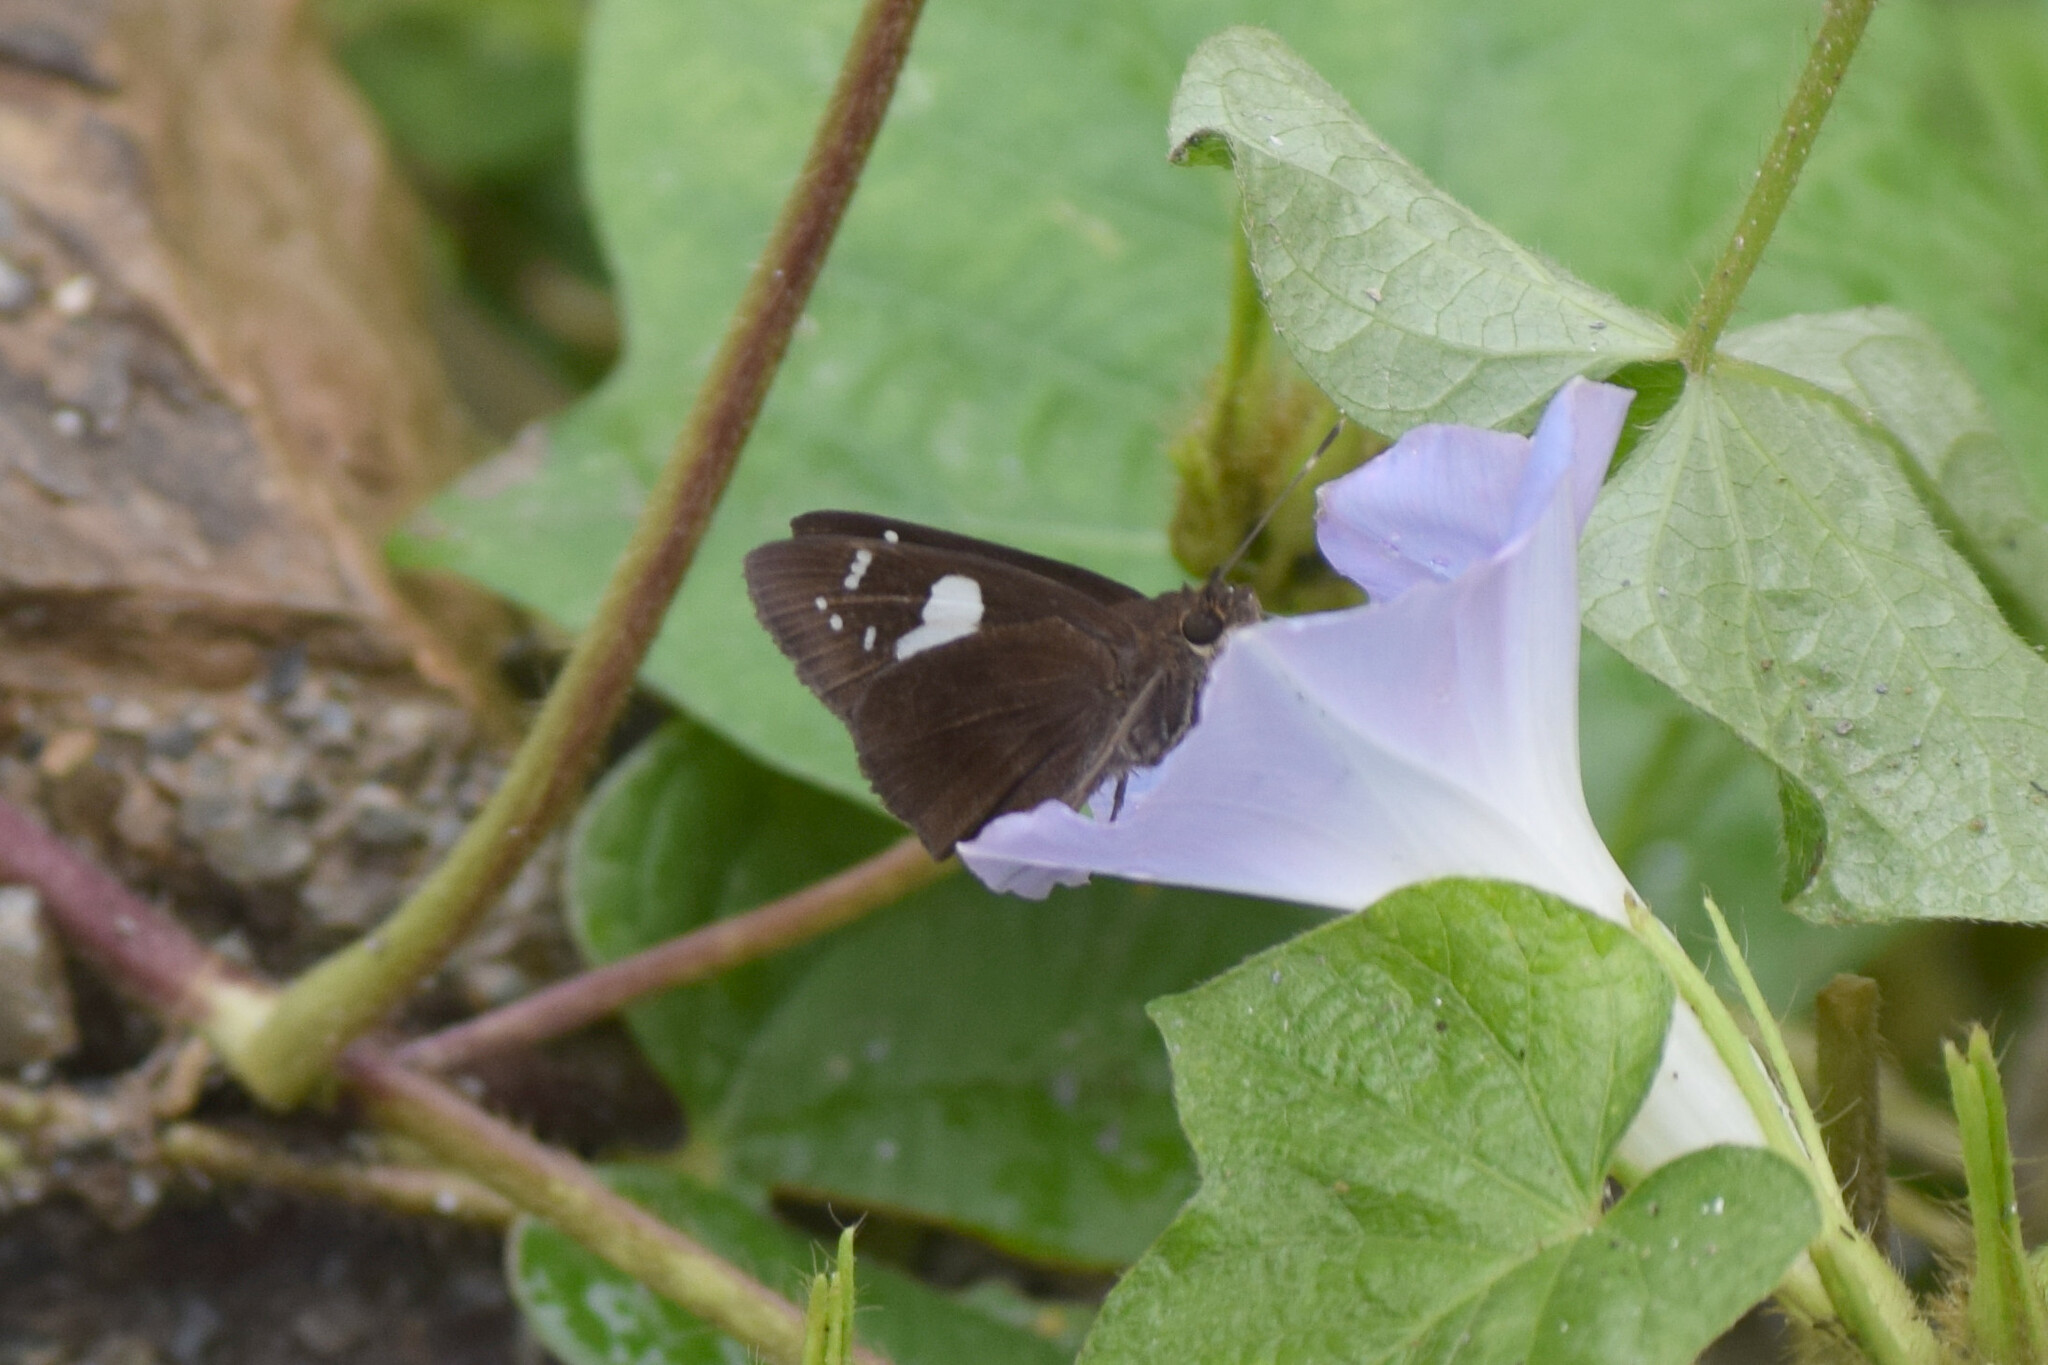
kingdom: Animalia
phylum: Arthropoda
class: Insecta
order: Lepidoptera
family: Hesperiidae
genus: Notocrypta
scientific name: Notocrypta curvifascia
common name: Restricted demon
